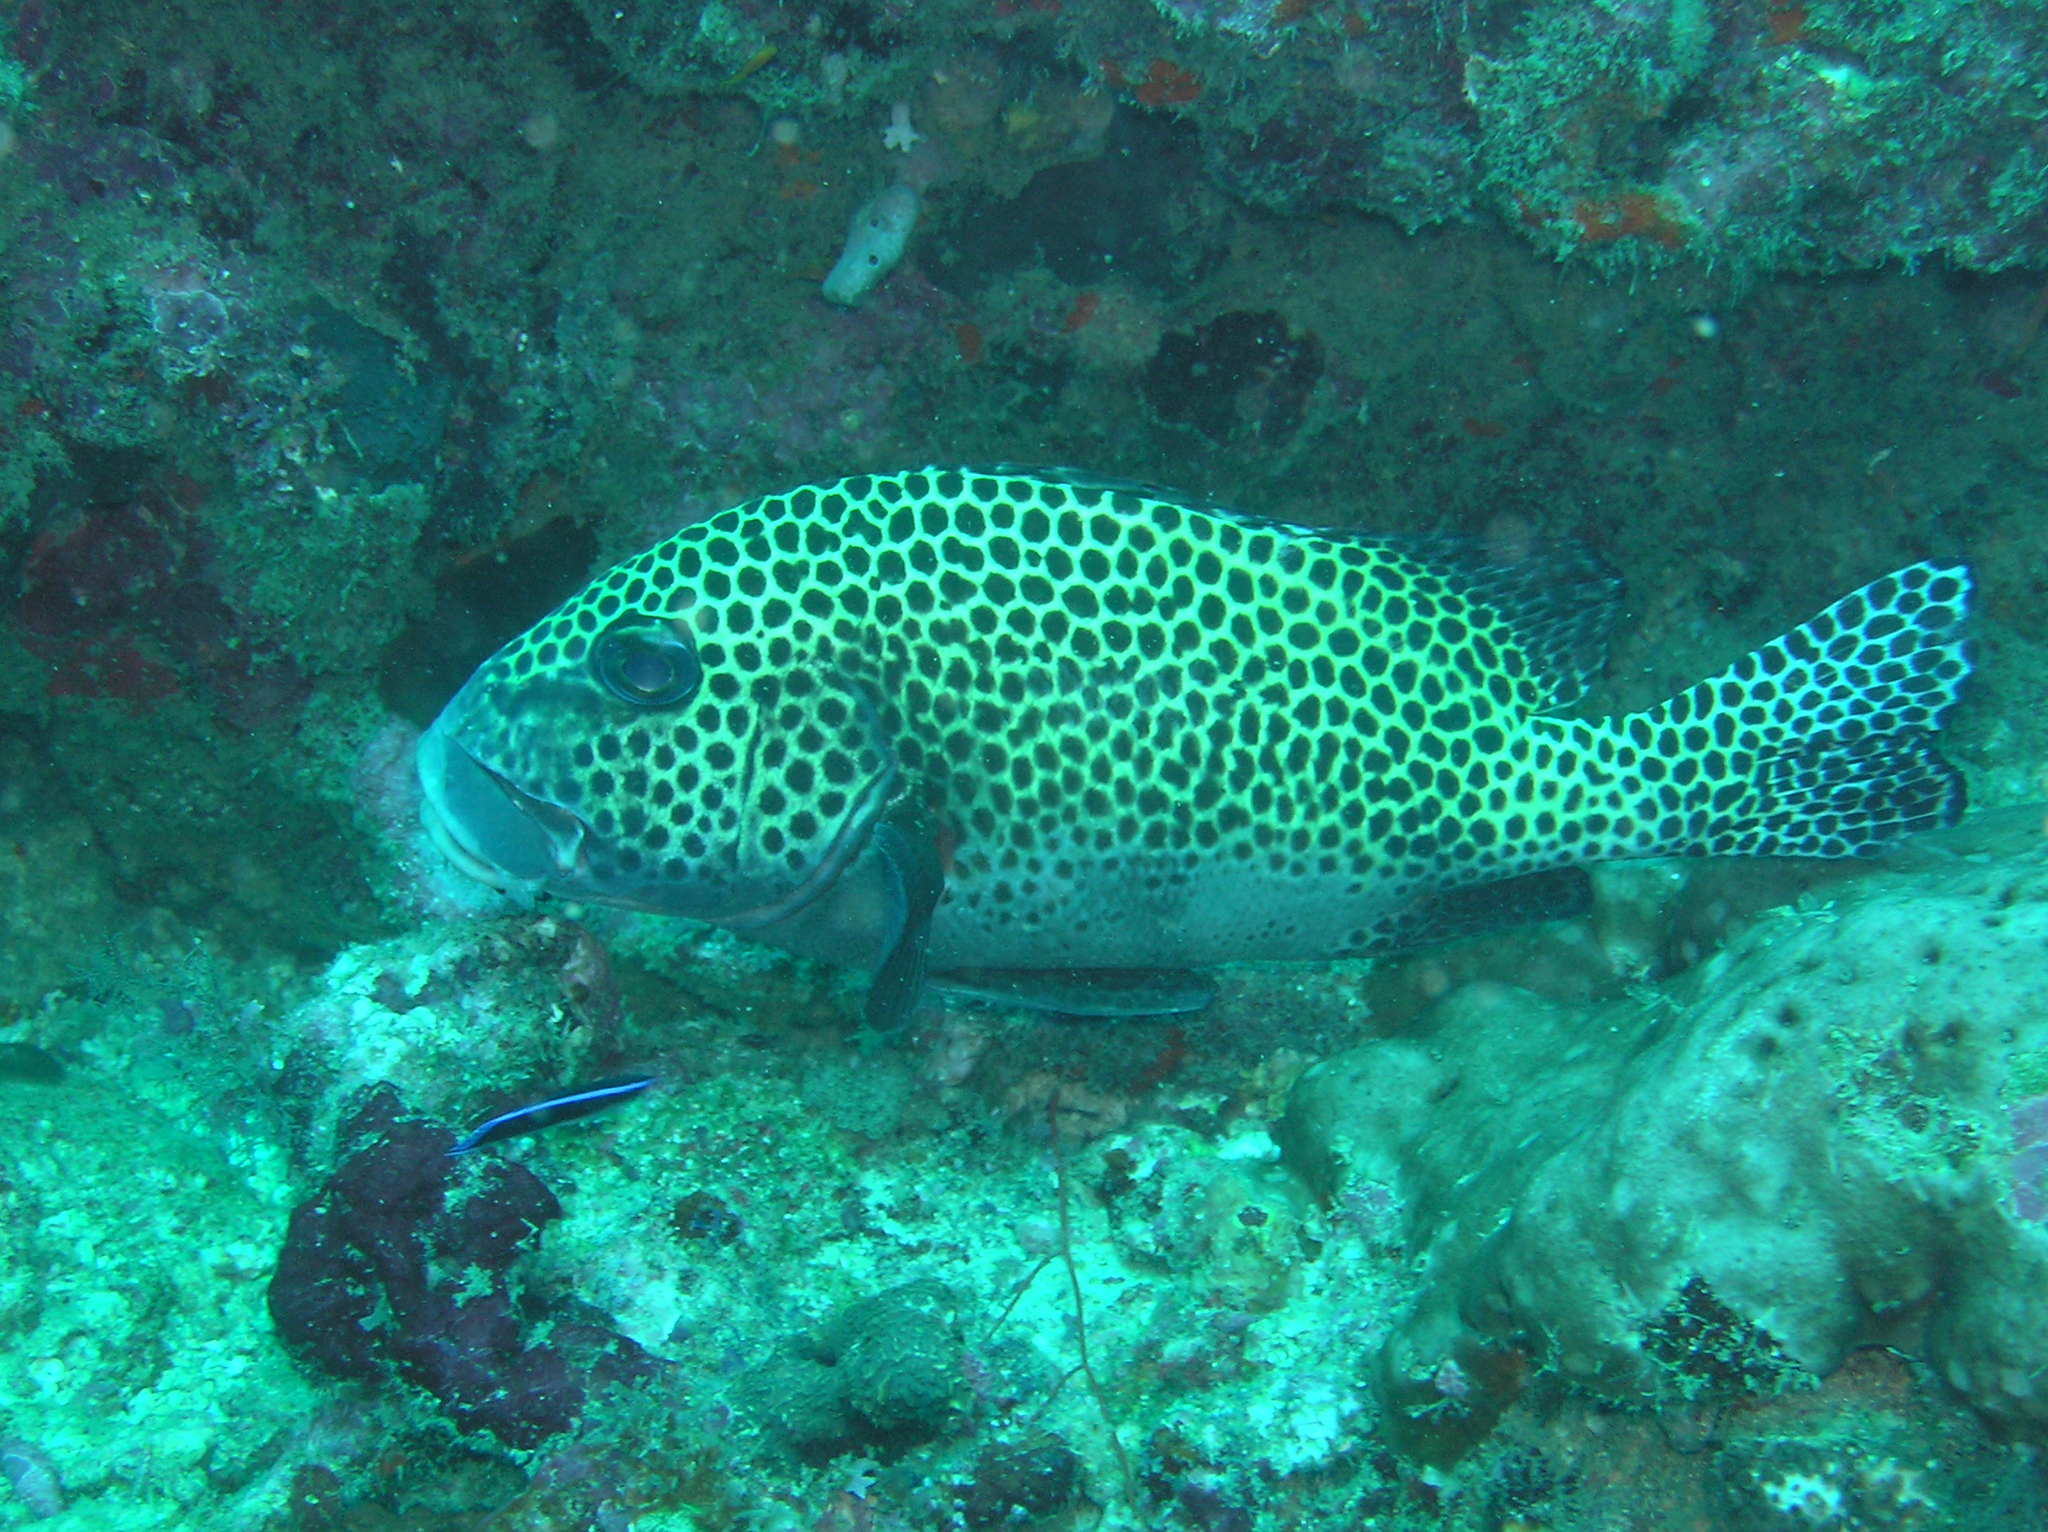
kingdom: Animalia
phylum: Chordata
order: Perciformes
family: Haemulidae
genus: Plectorhinchus
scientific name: Plectorhinchus chaetodonoides
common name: Harlequin sweetlips
